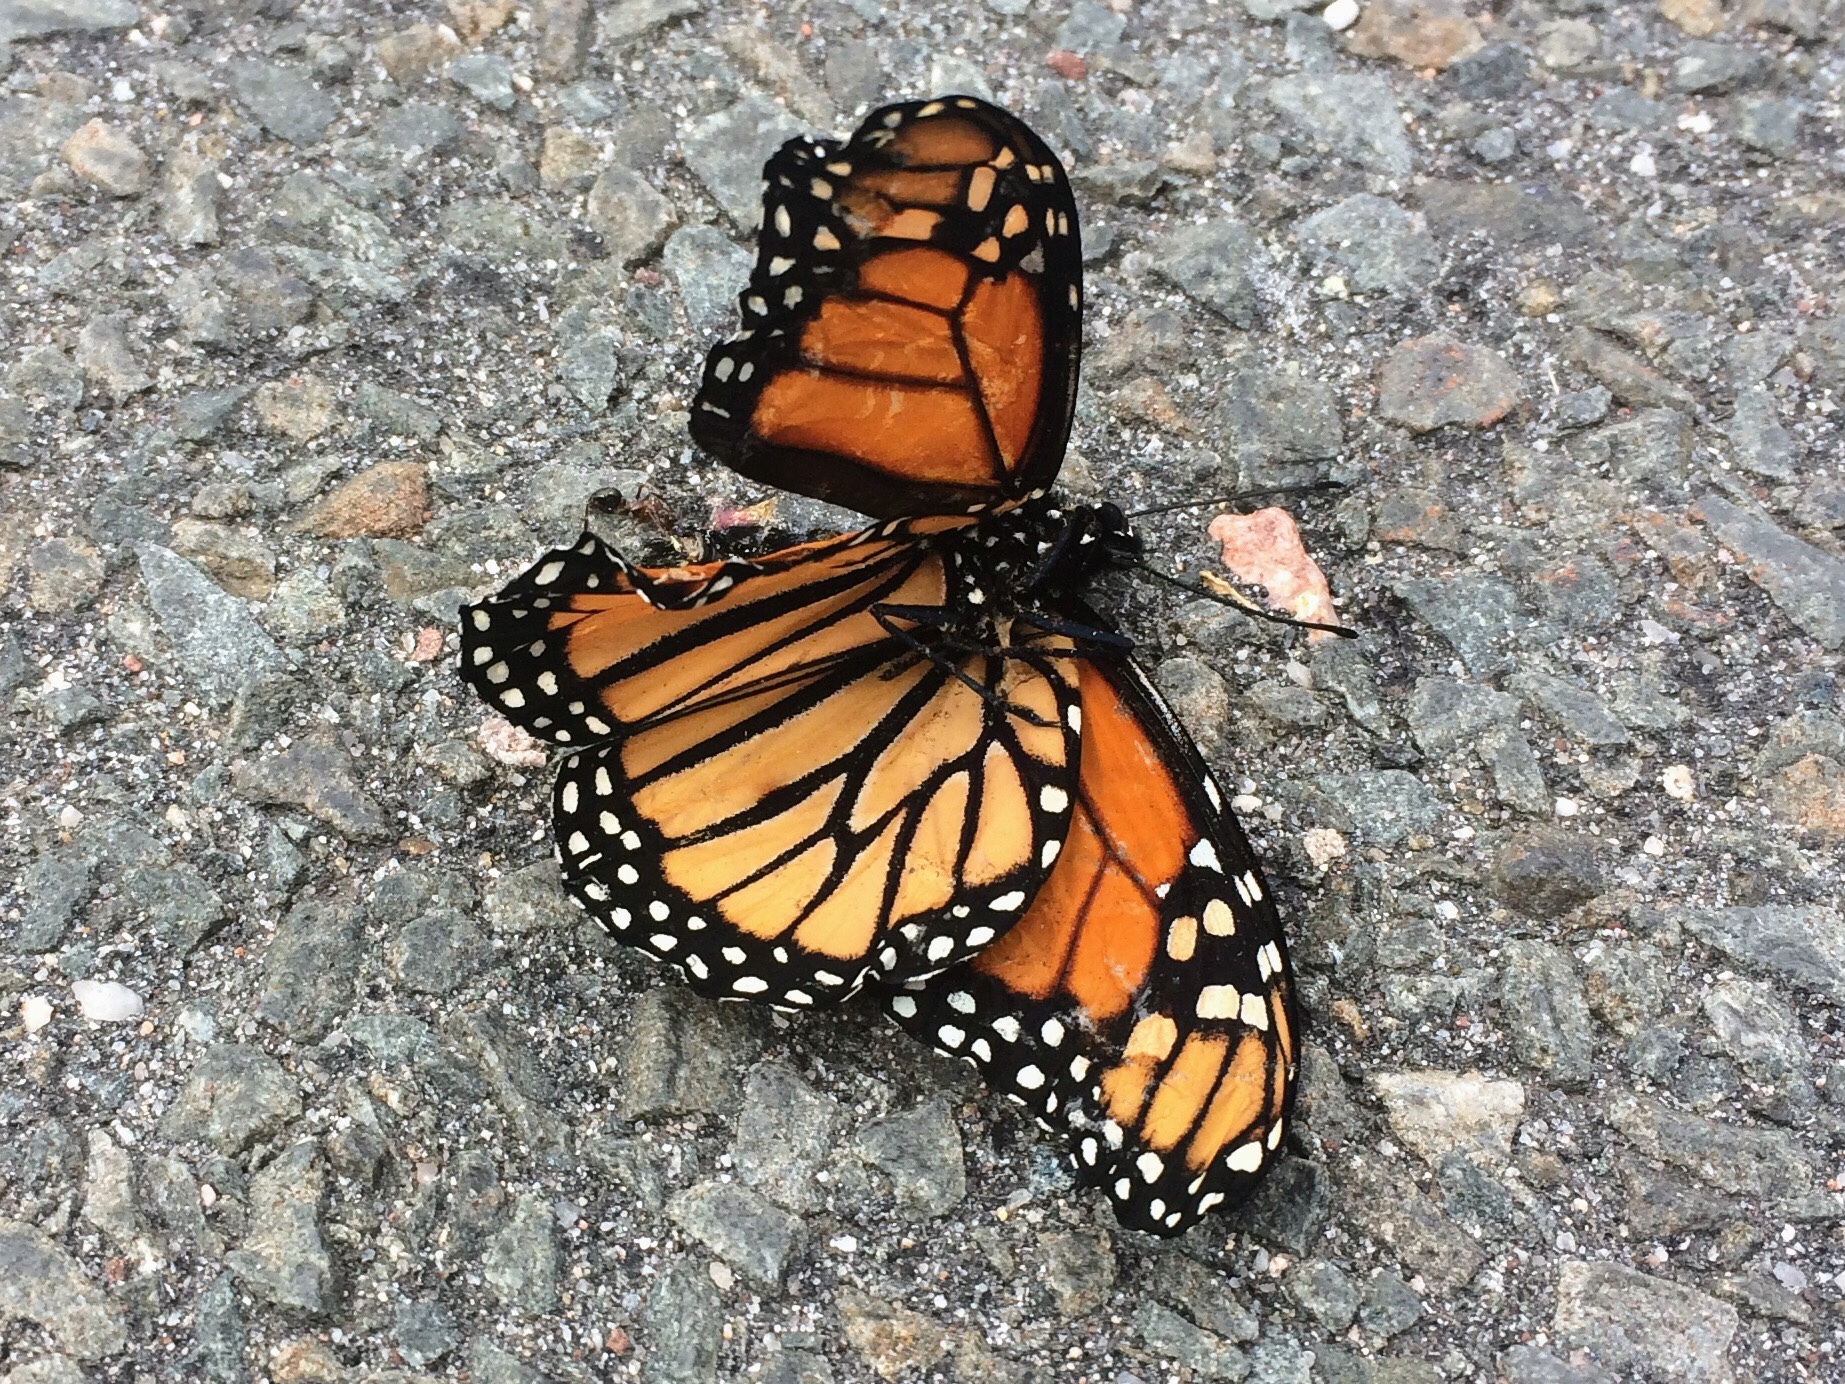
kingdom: Animalia
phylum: Arthropoda
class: Insecta
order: Lepidoptera
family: Nymphalidae
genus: Danaus
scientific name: Danaus plexippus
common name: Monarch
